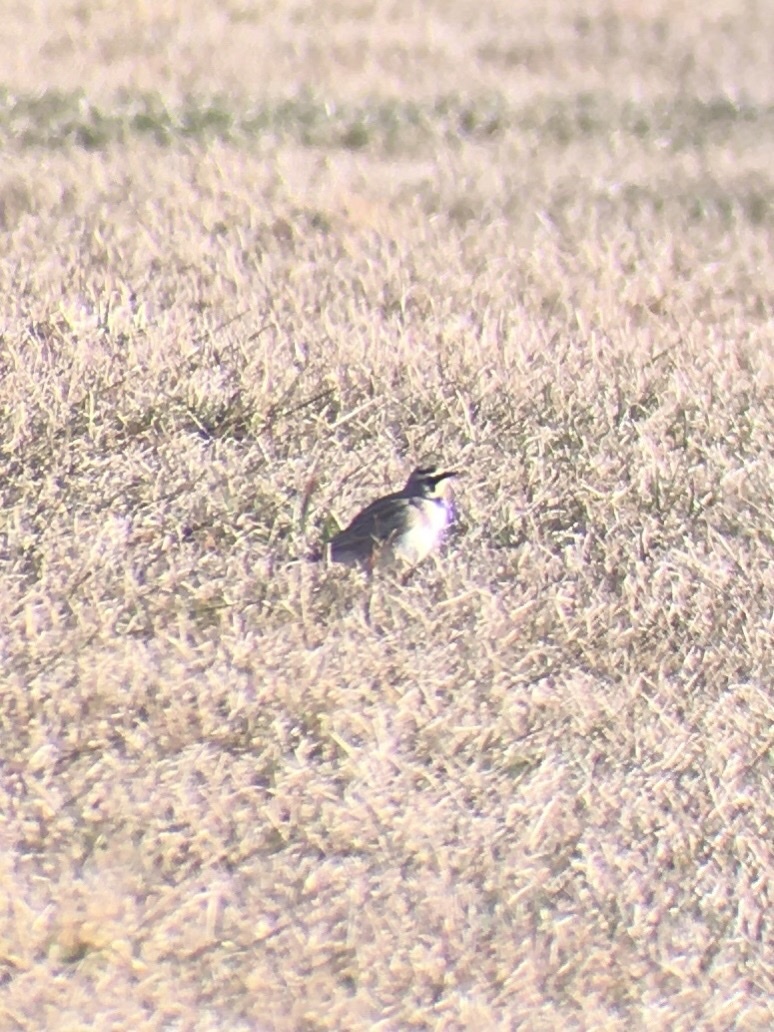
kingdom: Animalia
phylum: Chordata
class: Aves
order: Passeriformes
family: Alaudidae
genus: Eremophila
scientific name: Eremophila alpestris
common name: Horned lark
